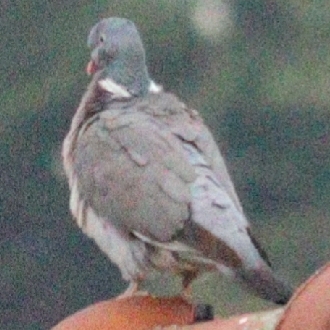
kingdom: Animalia
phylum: Chordata
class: Aves
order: Columbiformes
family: Columbidae
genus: Columba
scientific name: Columba palumbus
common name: Common wood pigeon
